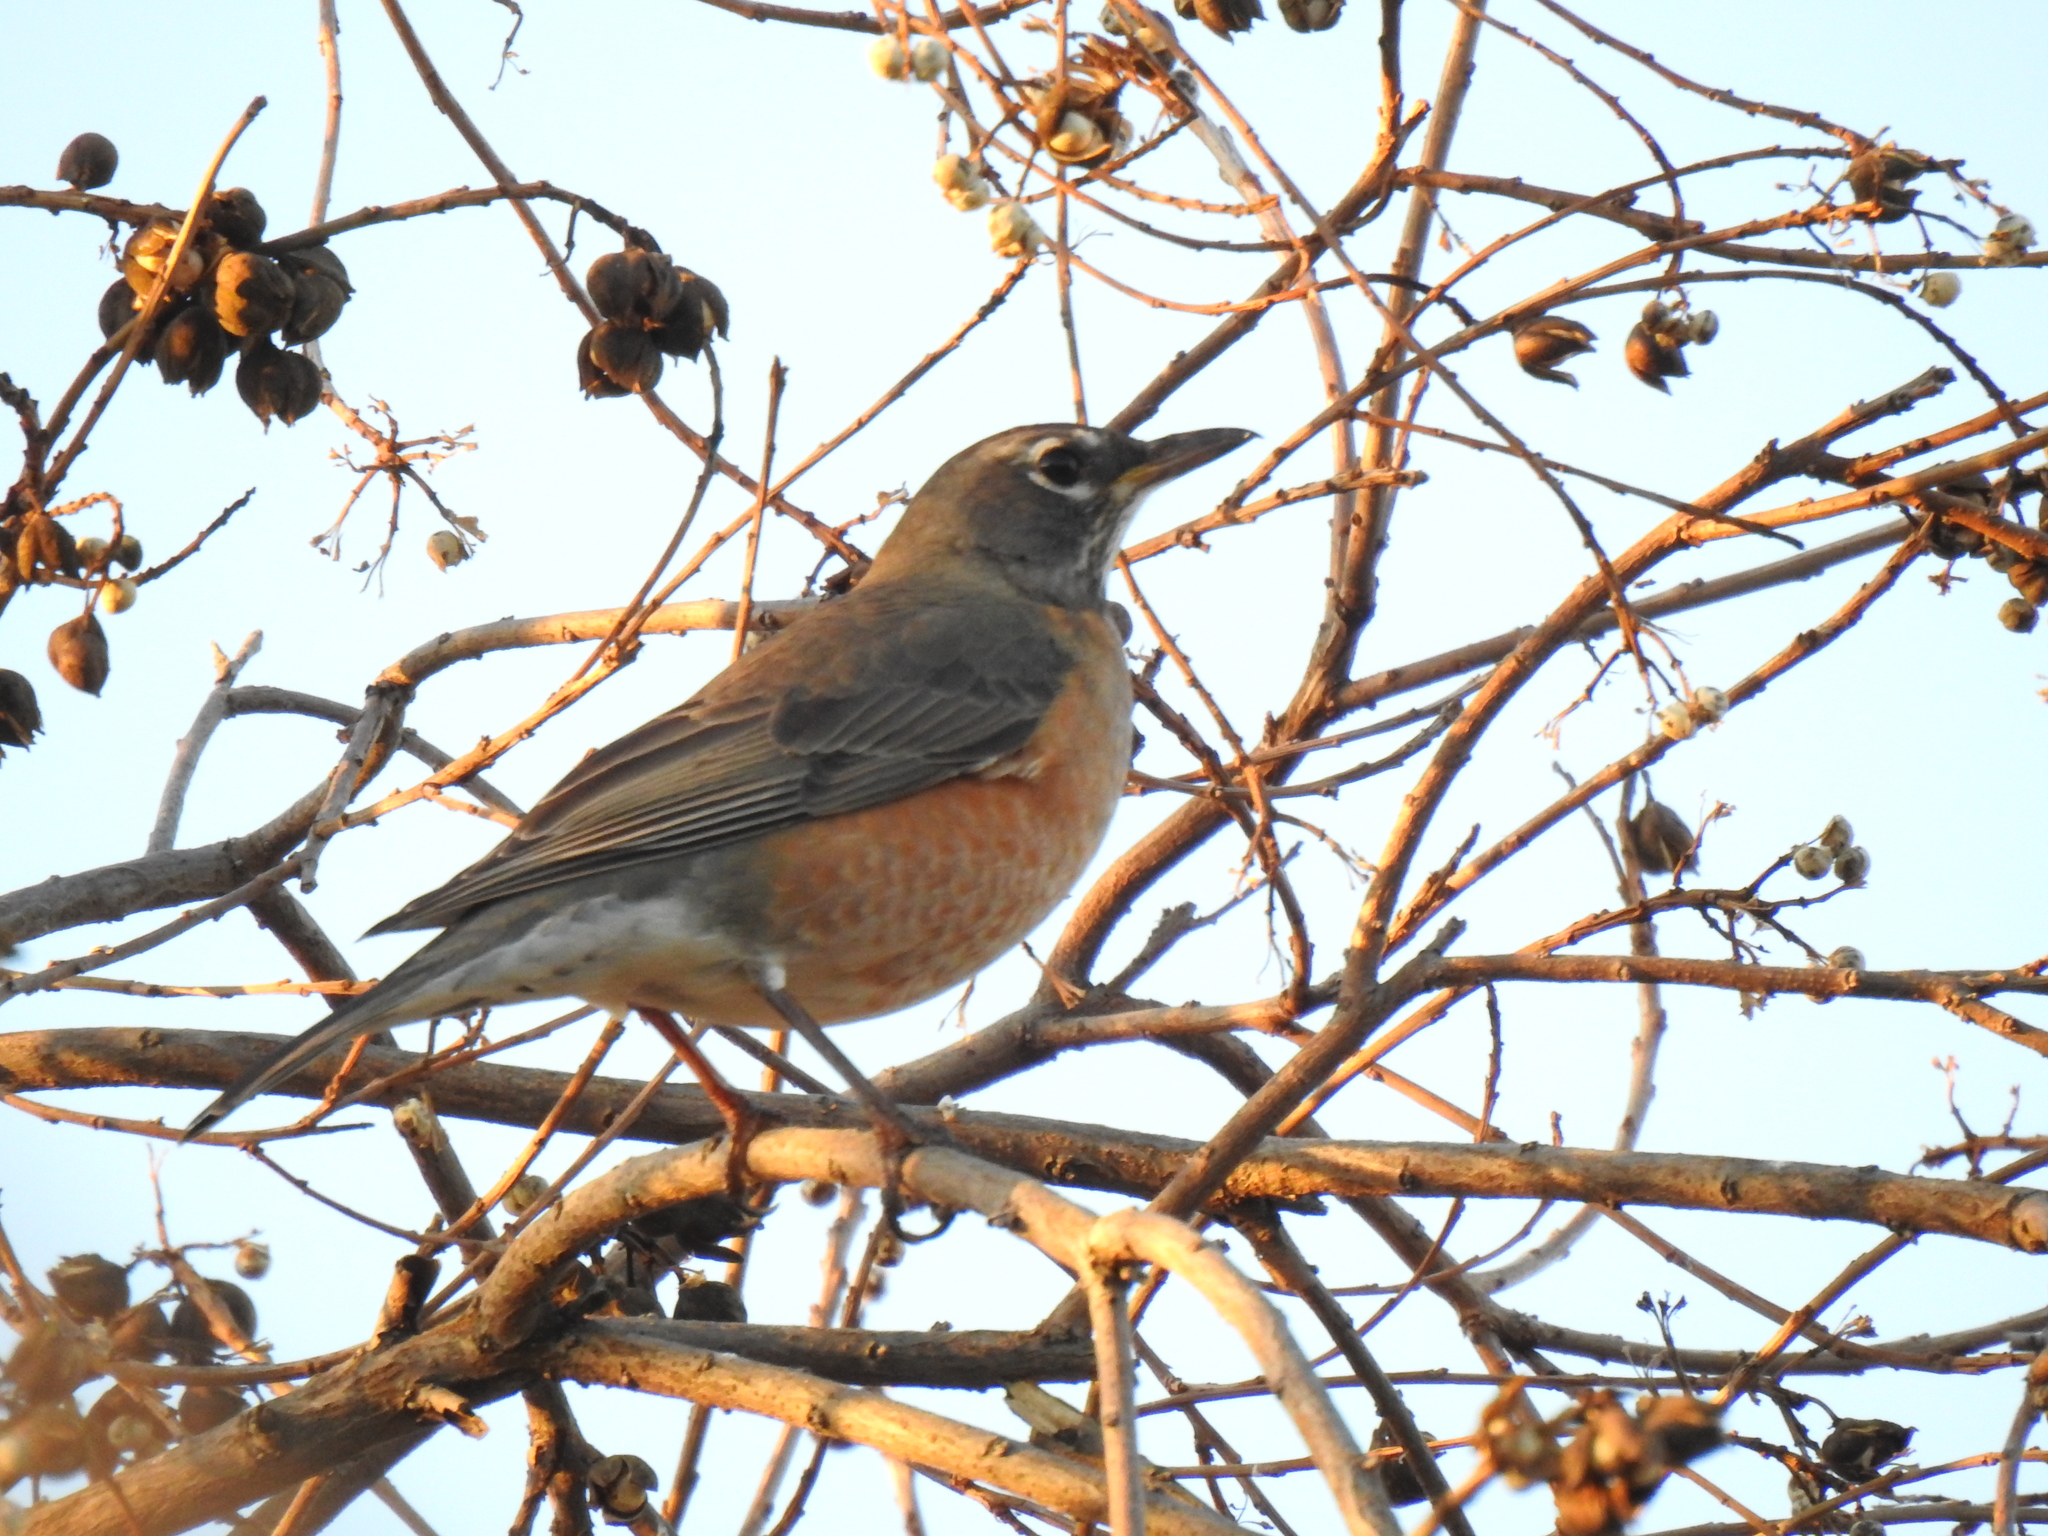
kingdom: Animalia
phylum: Chordata
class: Aves
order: Passeriformes
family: Turdidae
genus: Turdus
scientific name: Turdus migratorius
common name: American robin
